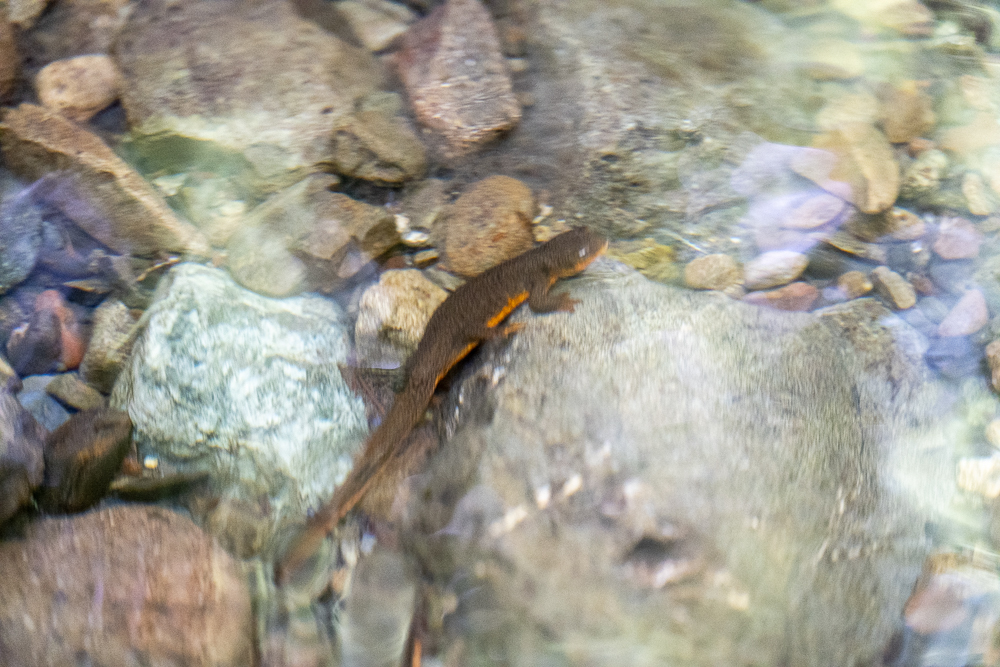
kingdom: Animalia
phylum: Chordata
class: Amphibia
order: Caudata
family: Salamandridae
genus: Taricha
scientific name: Taricha granulosa
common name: Roughskin newt
